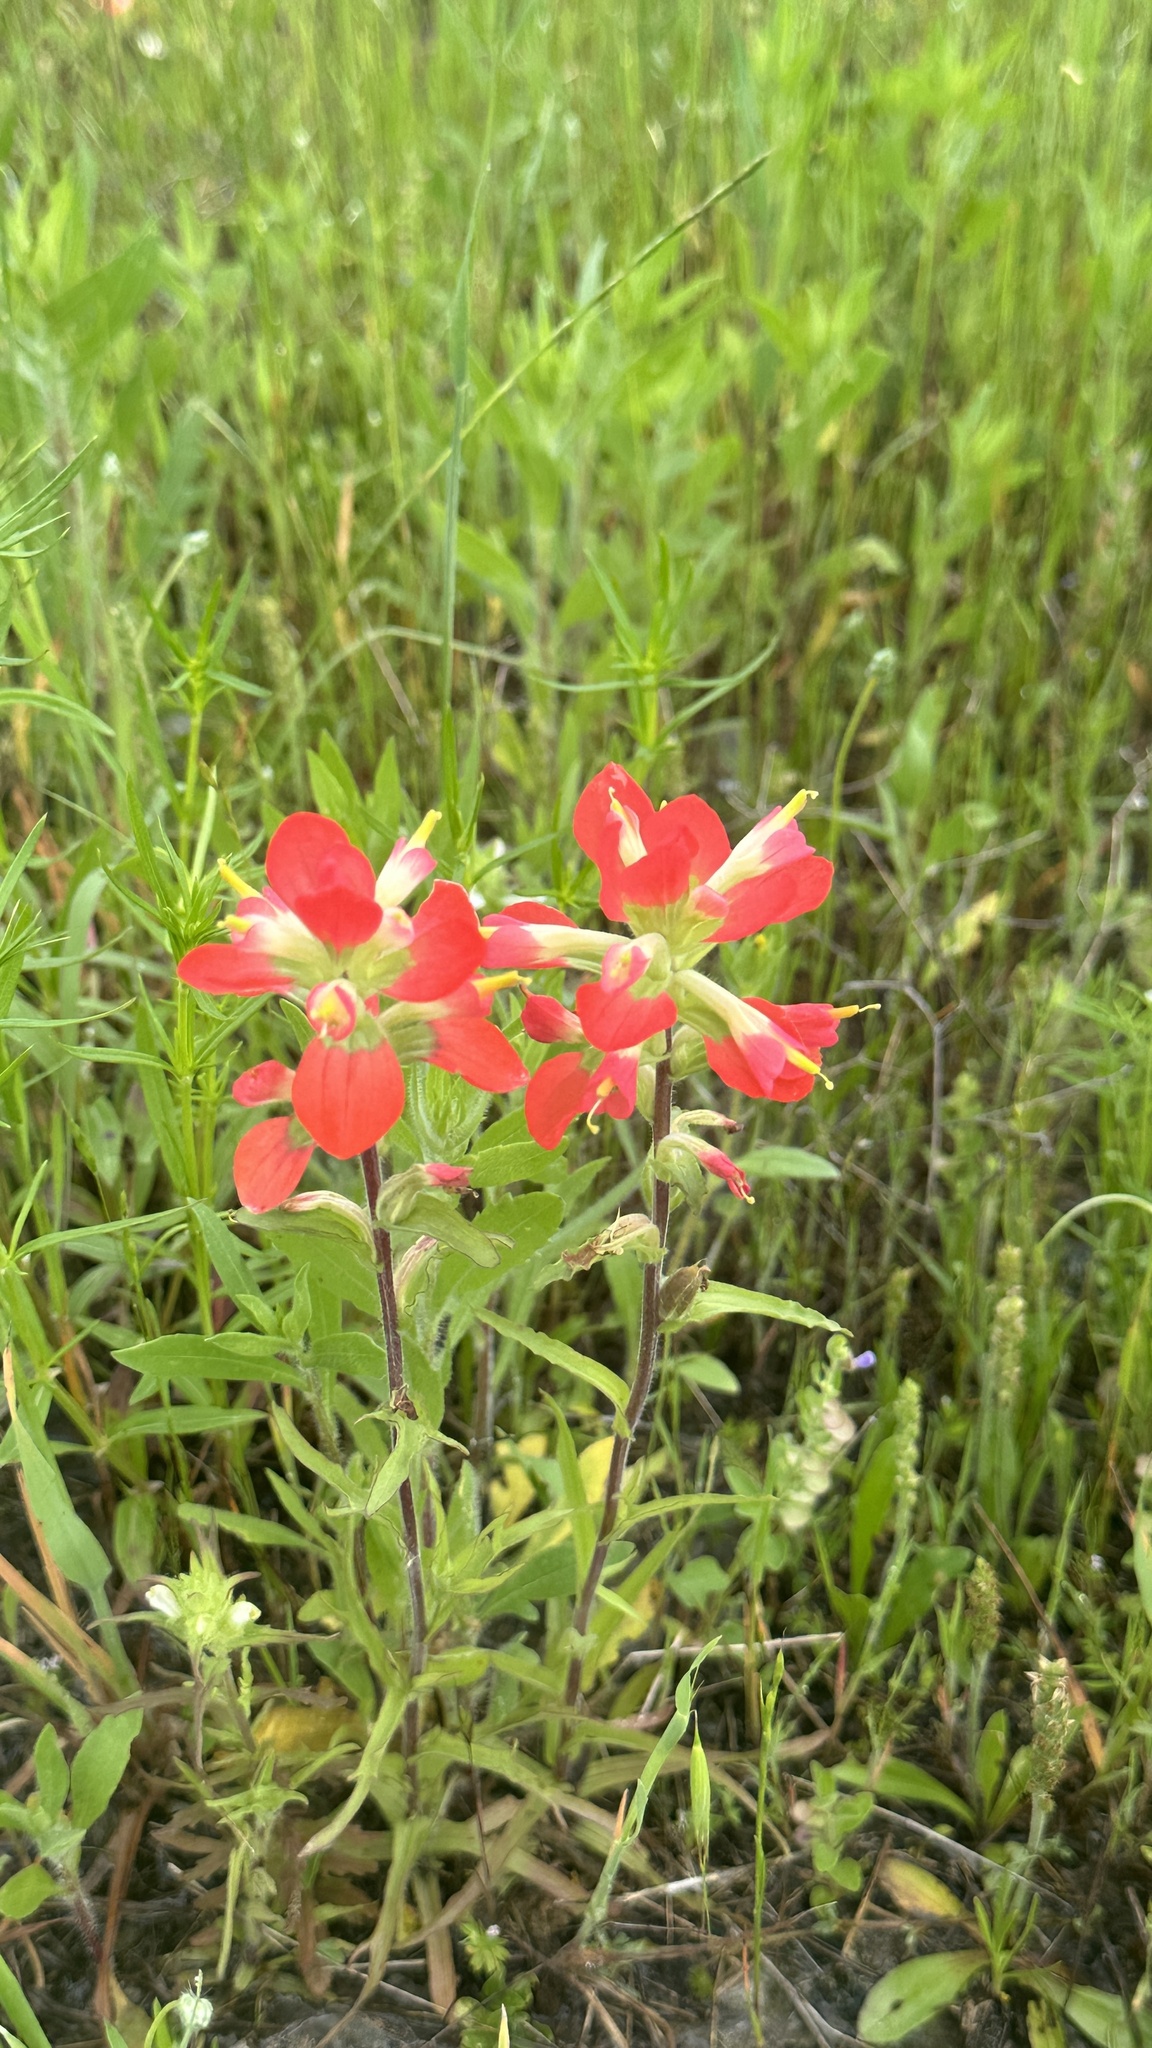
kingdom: Plantae
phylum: Tracheophyta
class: Magnoliopsida
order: Lamiales
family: Orobanchaceae
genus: Castilleja
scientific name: Castilleja indivisa
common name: Texas paintbrush
